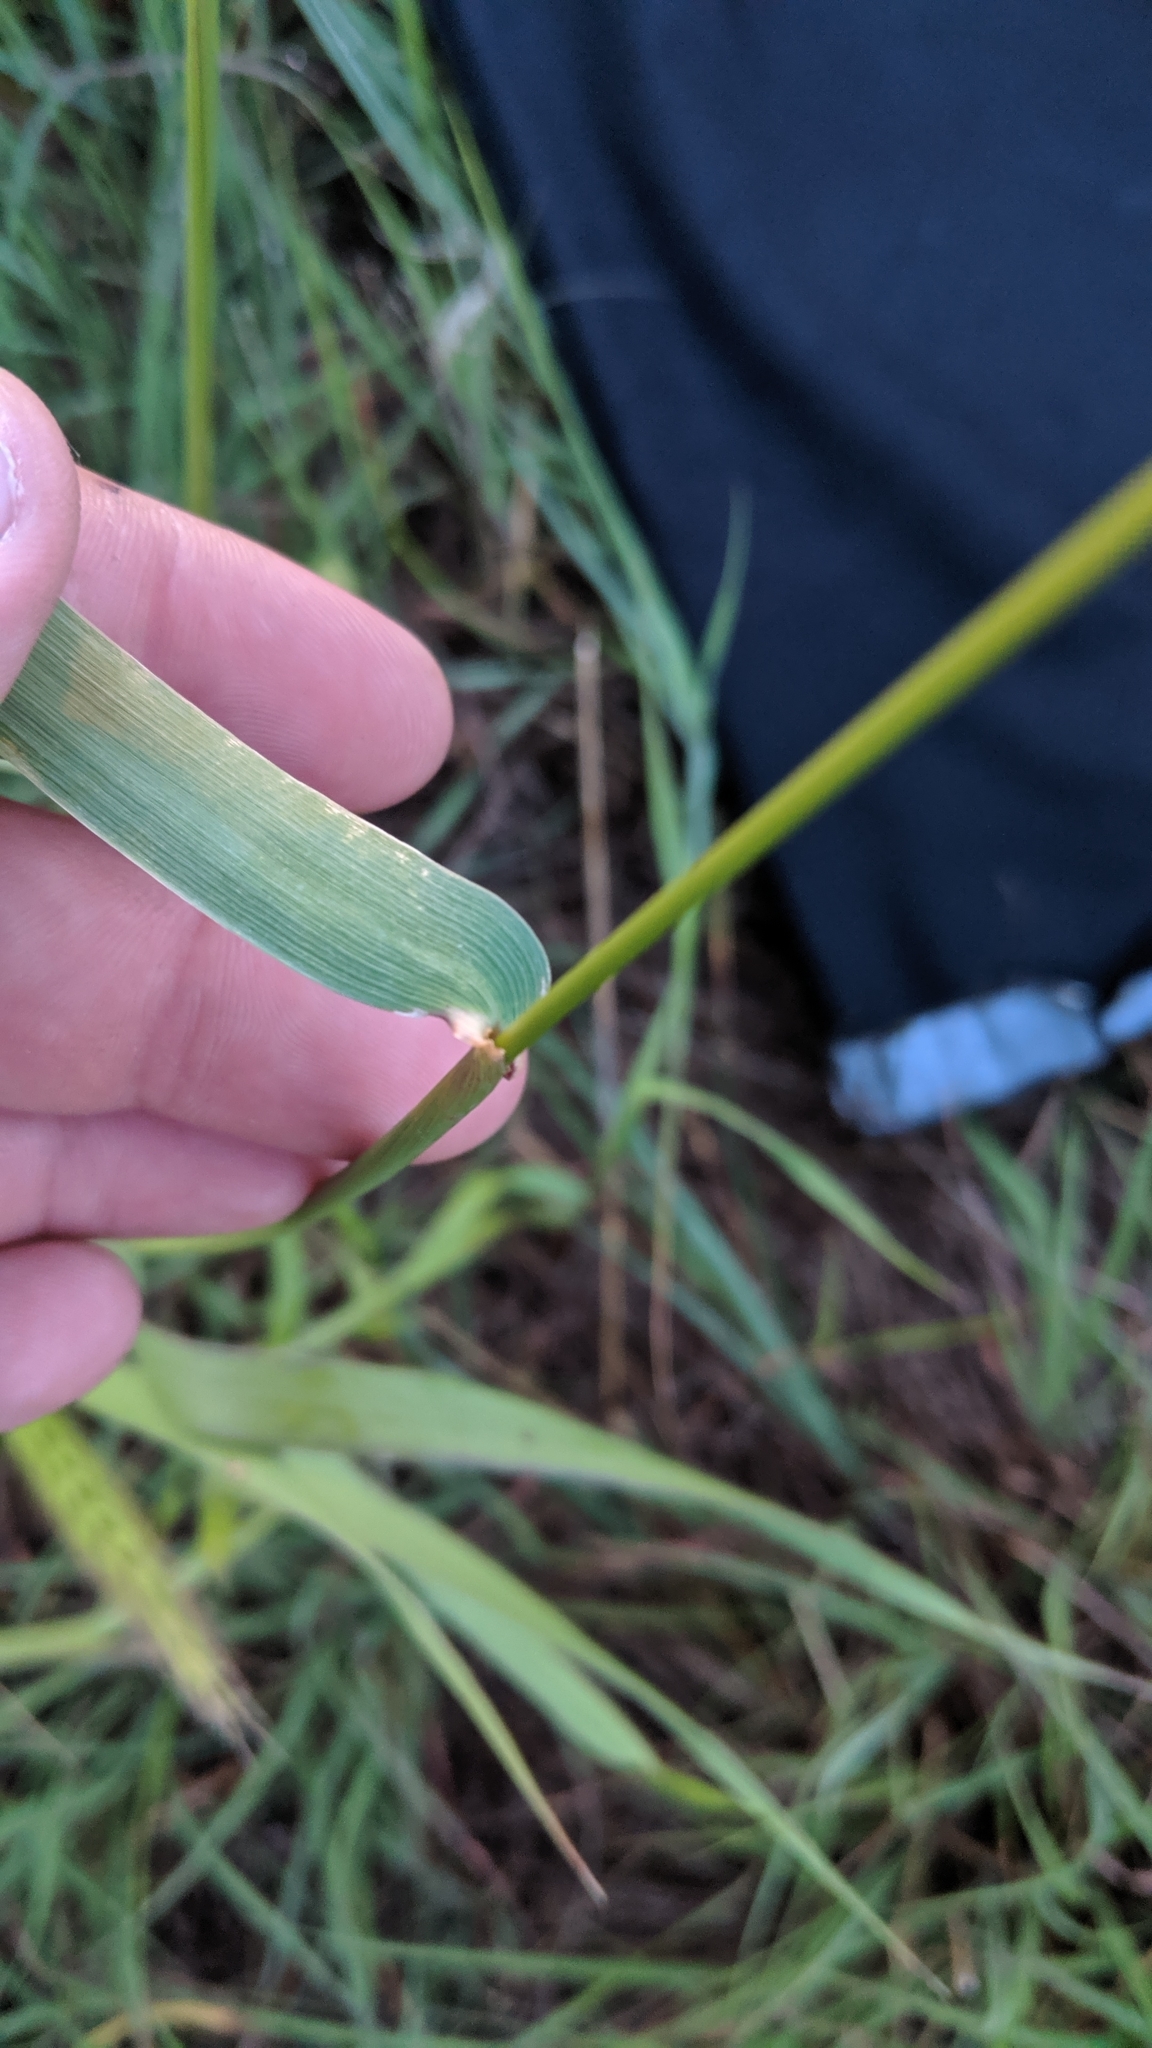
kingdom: Plantae
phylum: Tracheophyta
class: Liliopsida
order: Poales
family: Poaceae
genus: Elymus
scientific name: Elymus canadensis
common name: Canada wild rye
